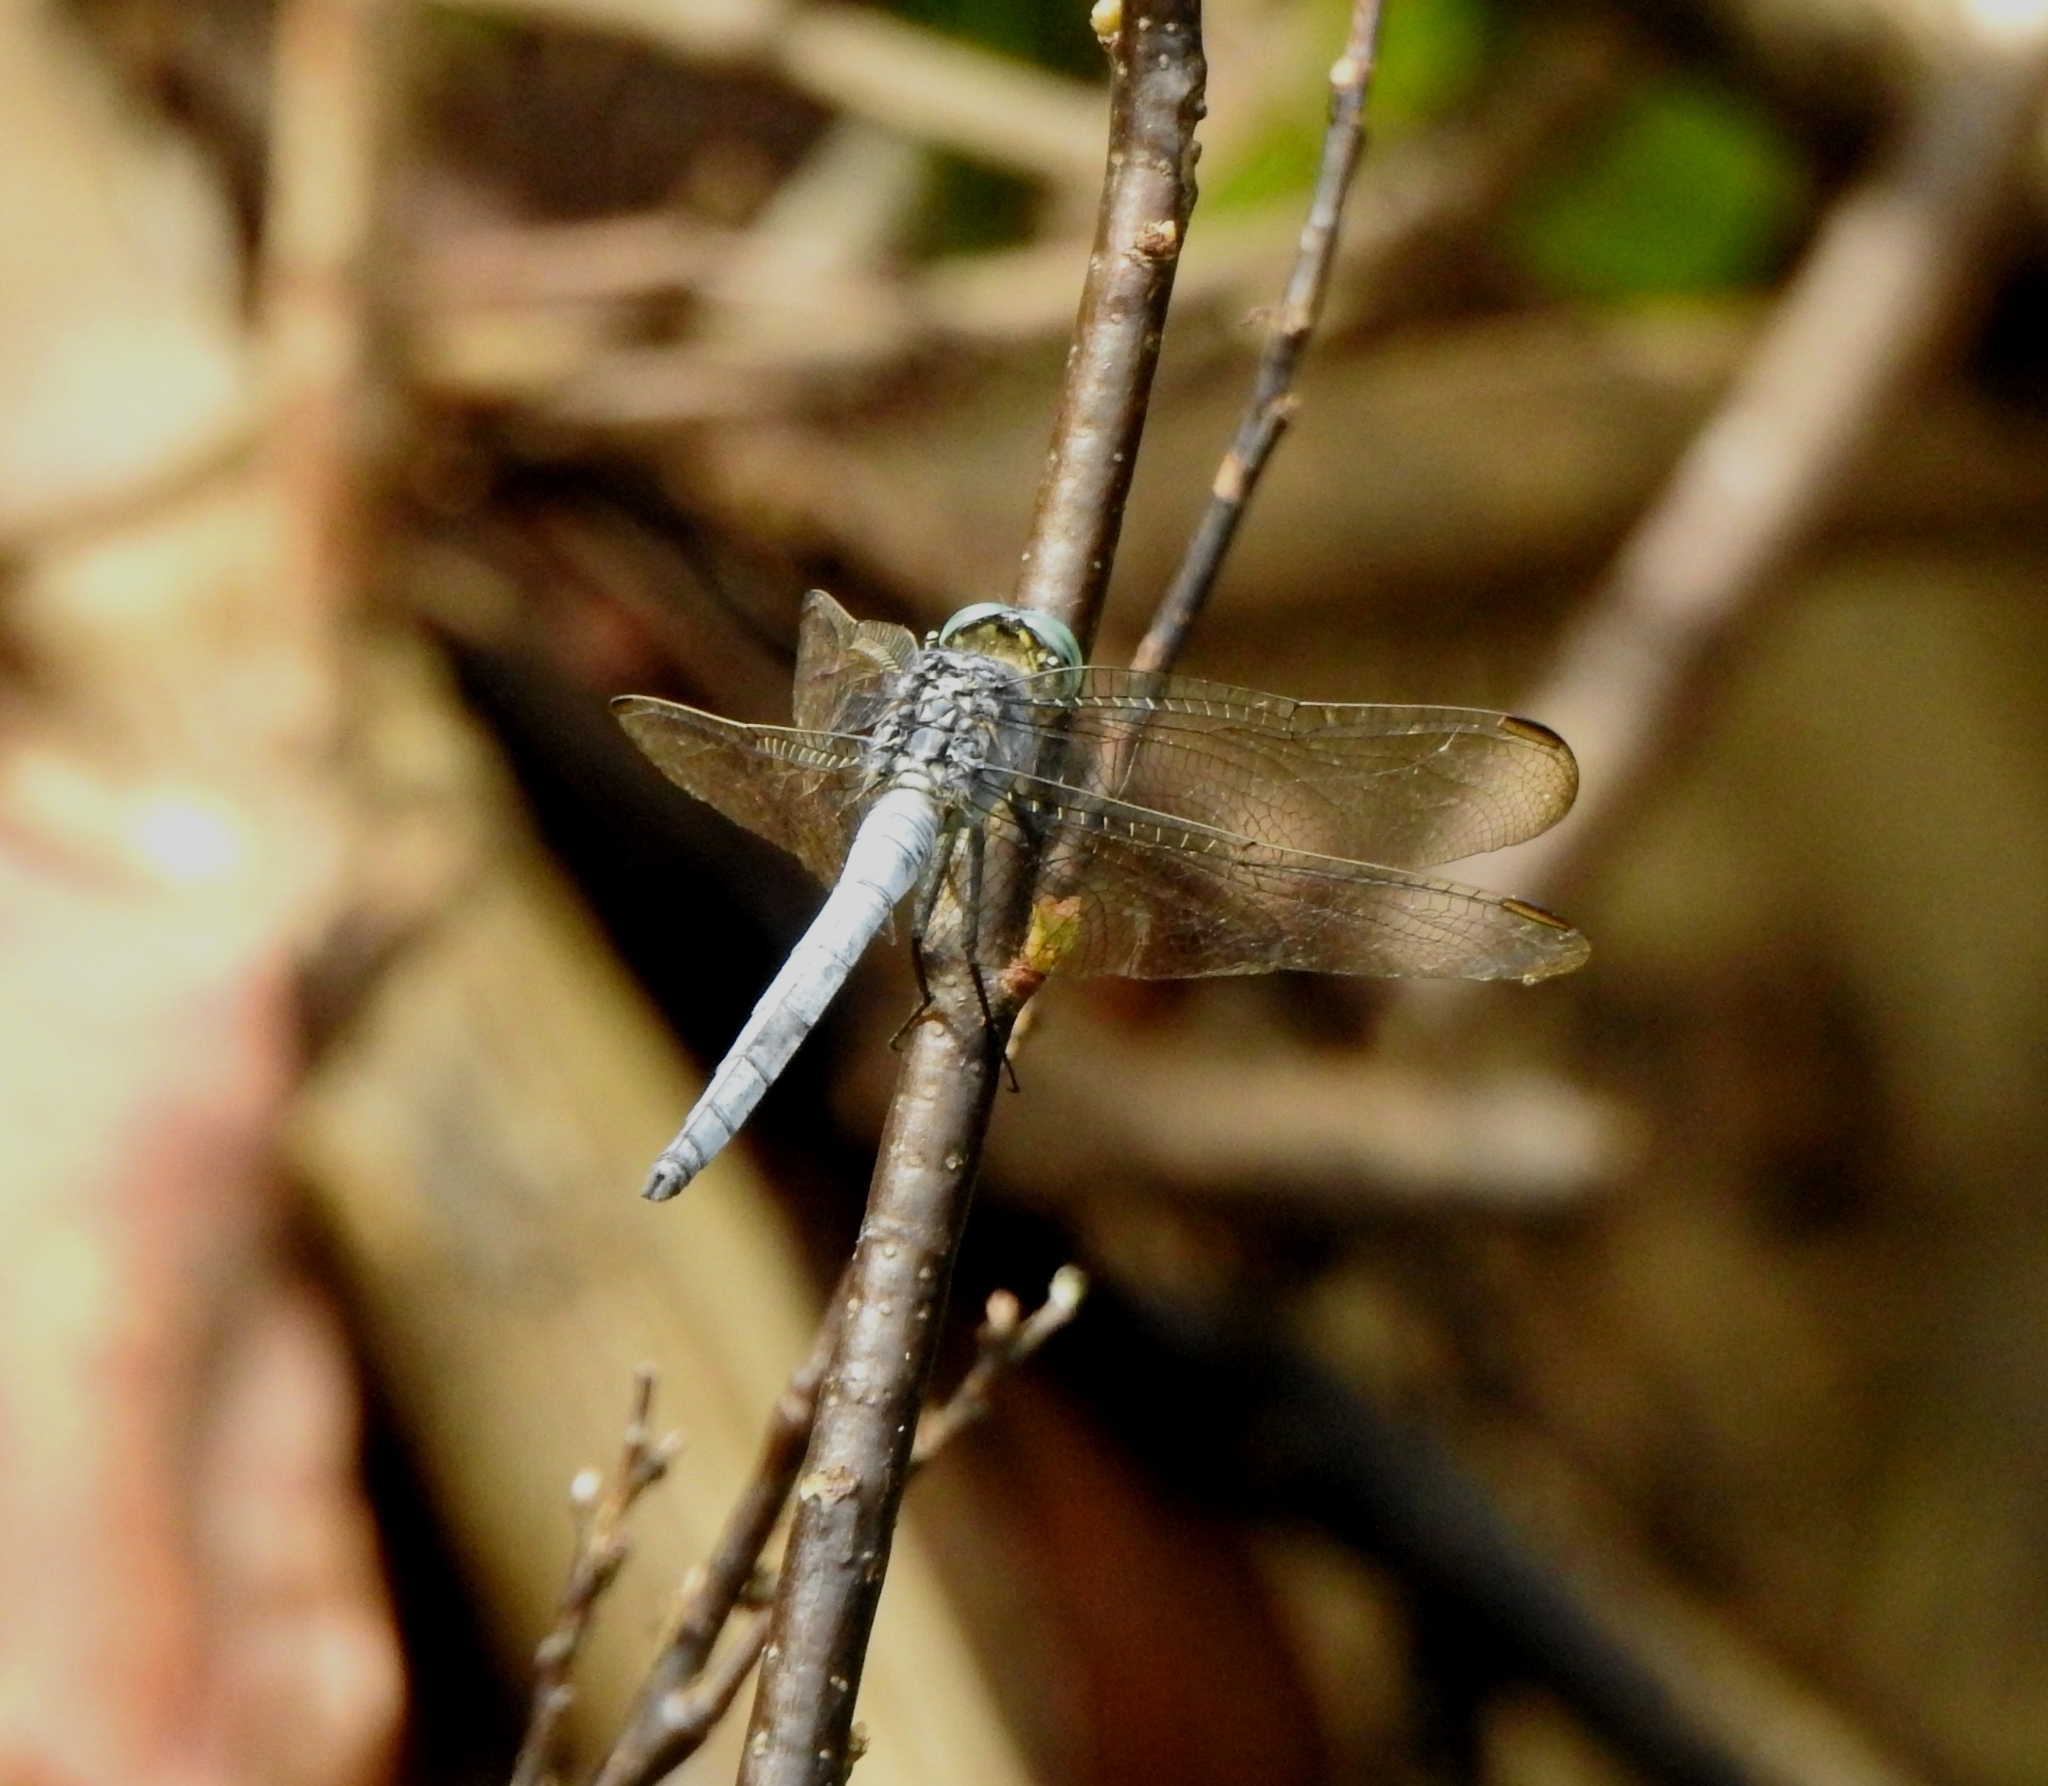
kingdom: Animalia
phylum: Arthropoda
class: Insecta
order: Odonata
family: Libellulidae
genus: Orthetrum
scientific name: Orthetrum luzonicum
